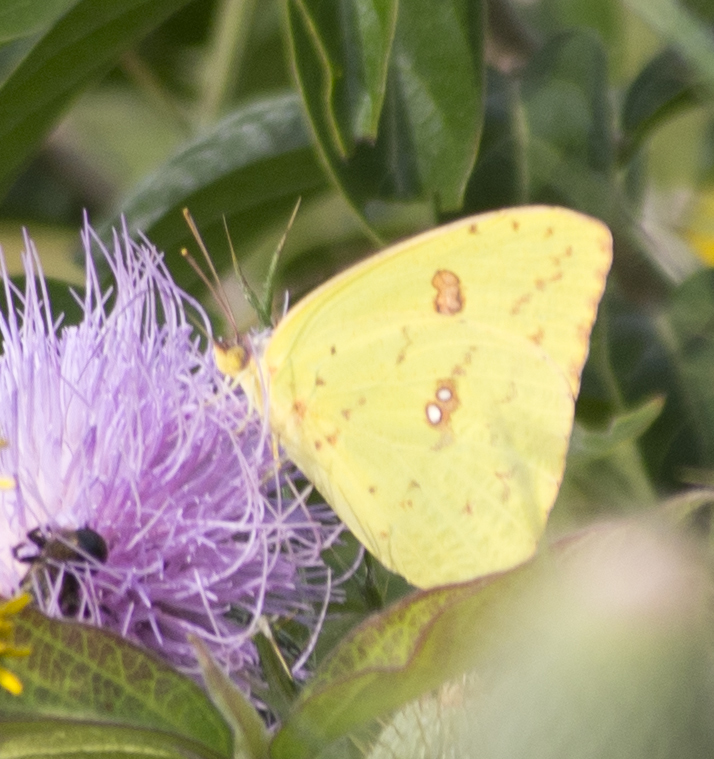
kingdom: Animalia
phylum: Arthropoda
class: Insecta
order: Lepidoptera
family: Pieridae
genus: Phoebis
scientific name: Phoebis sennae
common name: Cloudless sulphur
